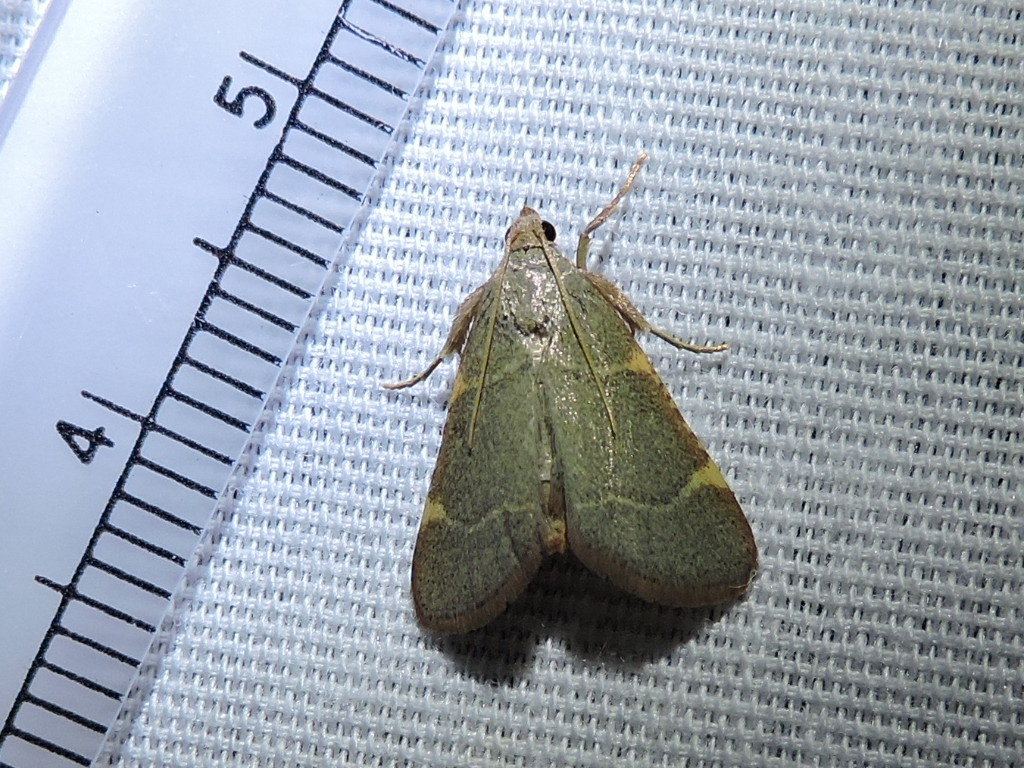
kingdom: Animalia
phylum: Arthropoda
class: Insecta
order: Lepidoptera
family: Pyralidae
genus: Hypsopygia
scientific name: Hypsopygia binodulalis
